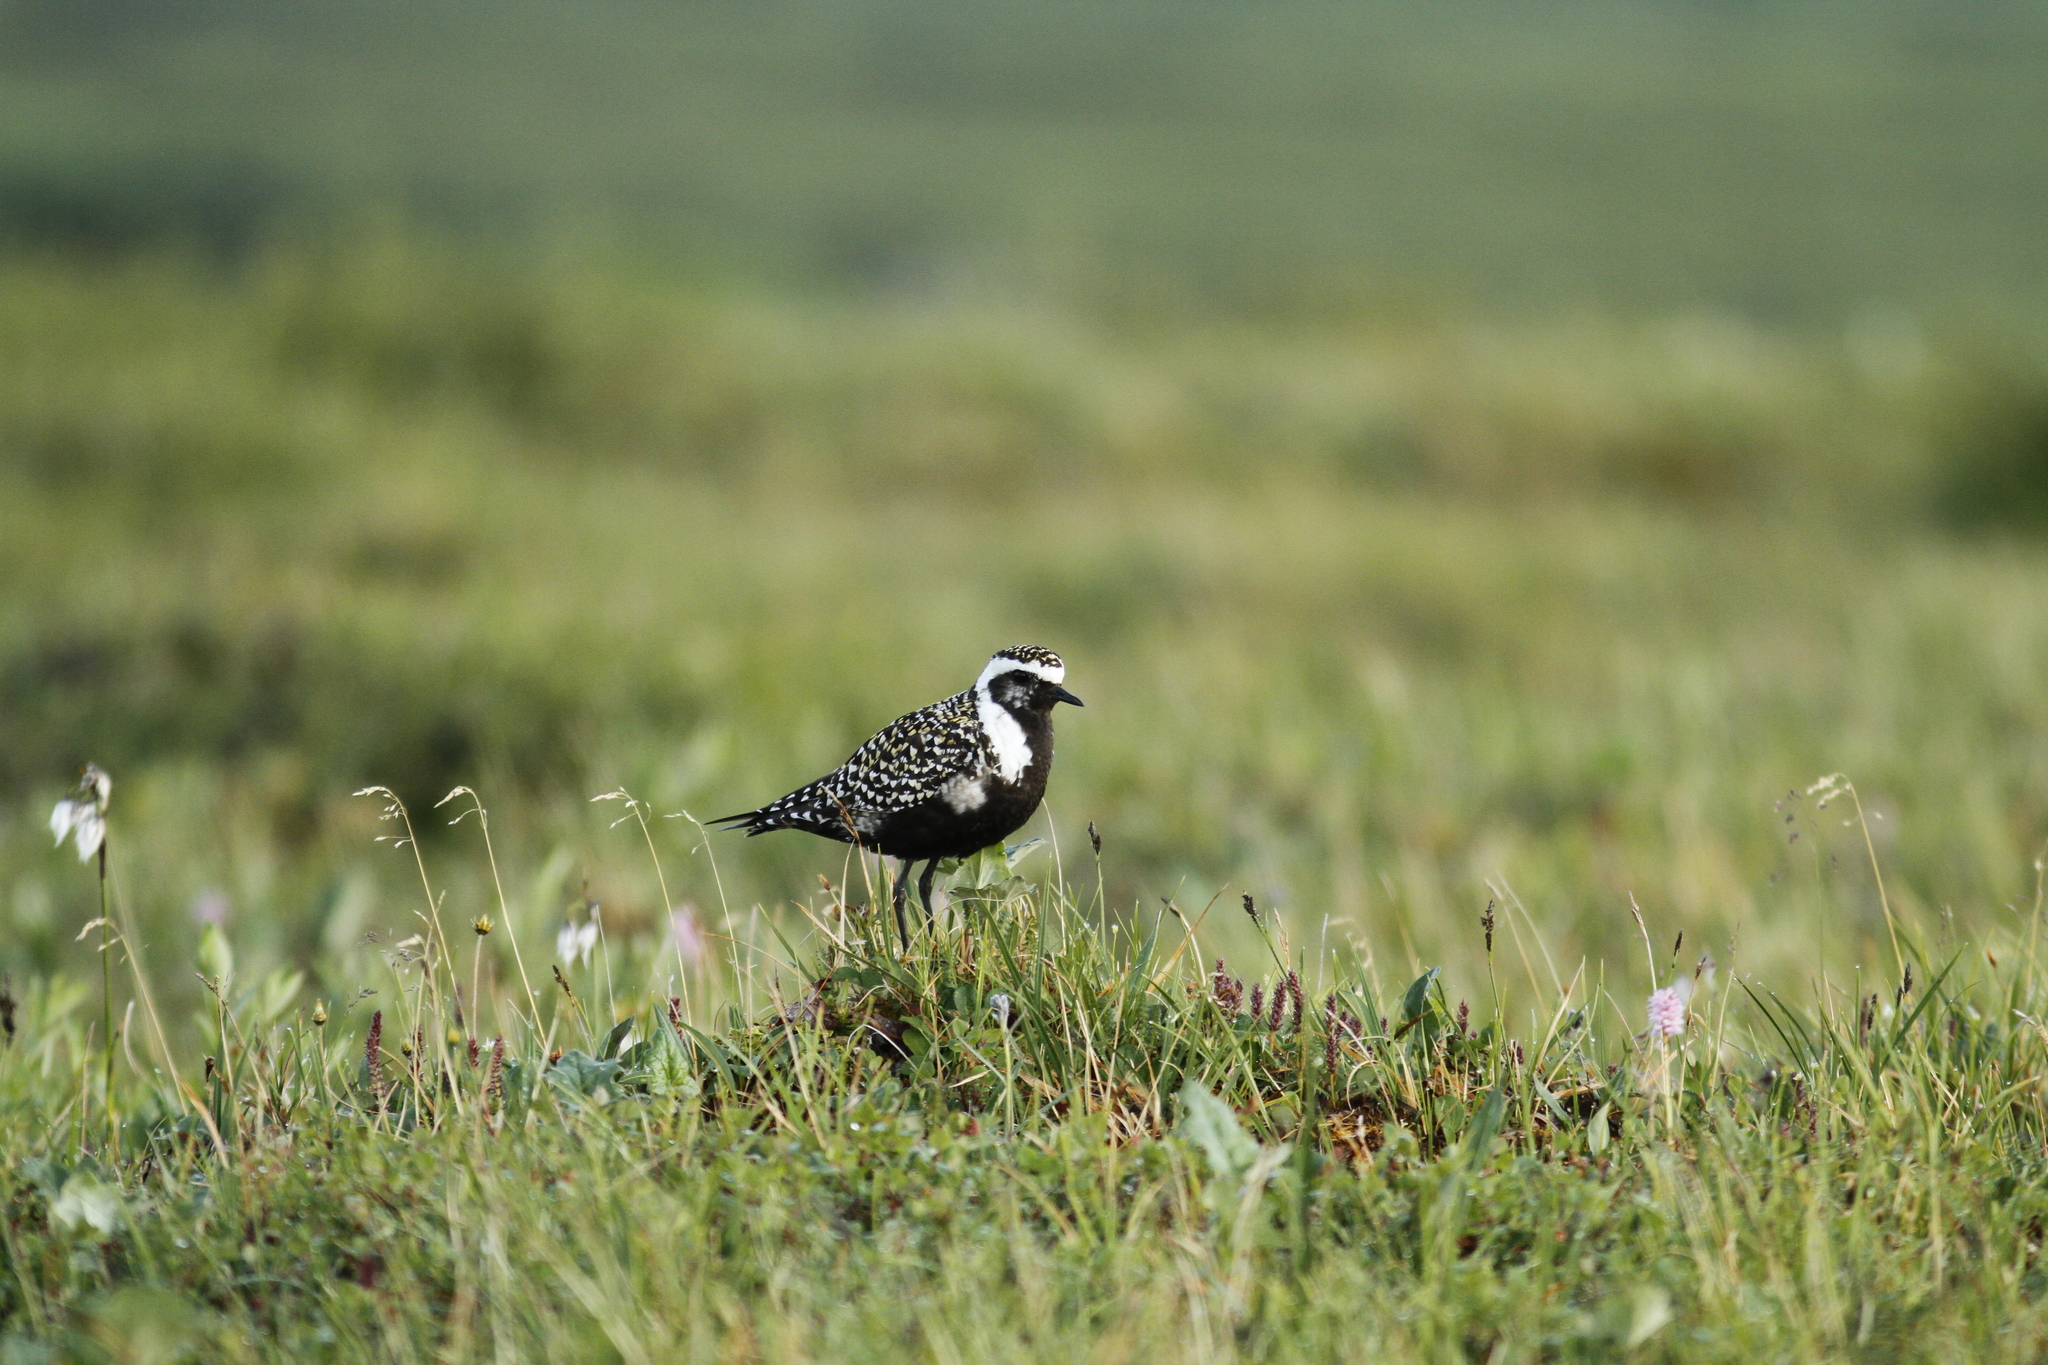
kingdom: Animalia
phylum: Chordata
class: Aves
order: Charadriiformes
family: Charadriidae
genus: Pluvialis
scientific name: Pluvialis dominica
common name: American golden plover
